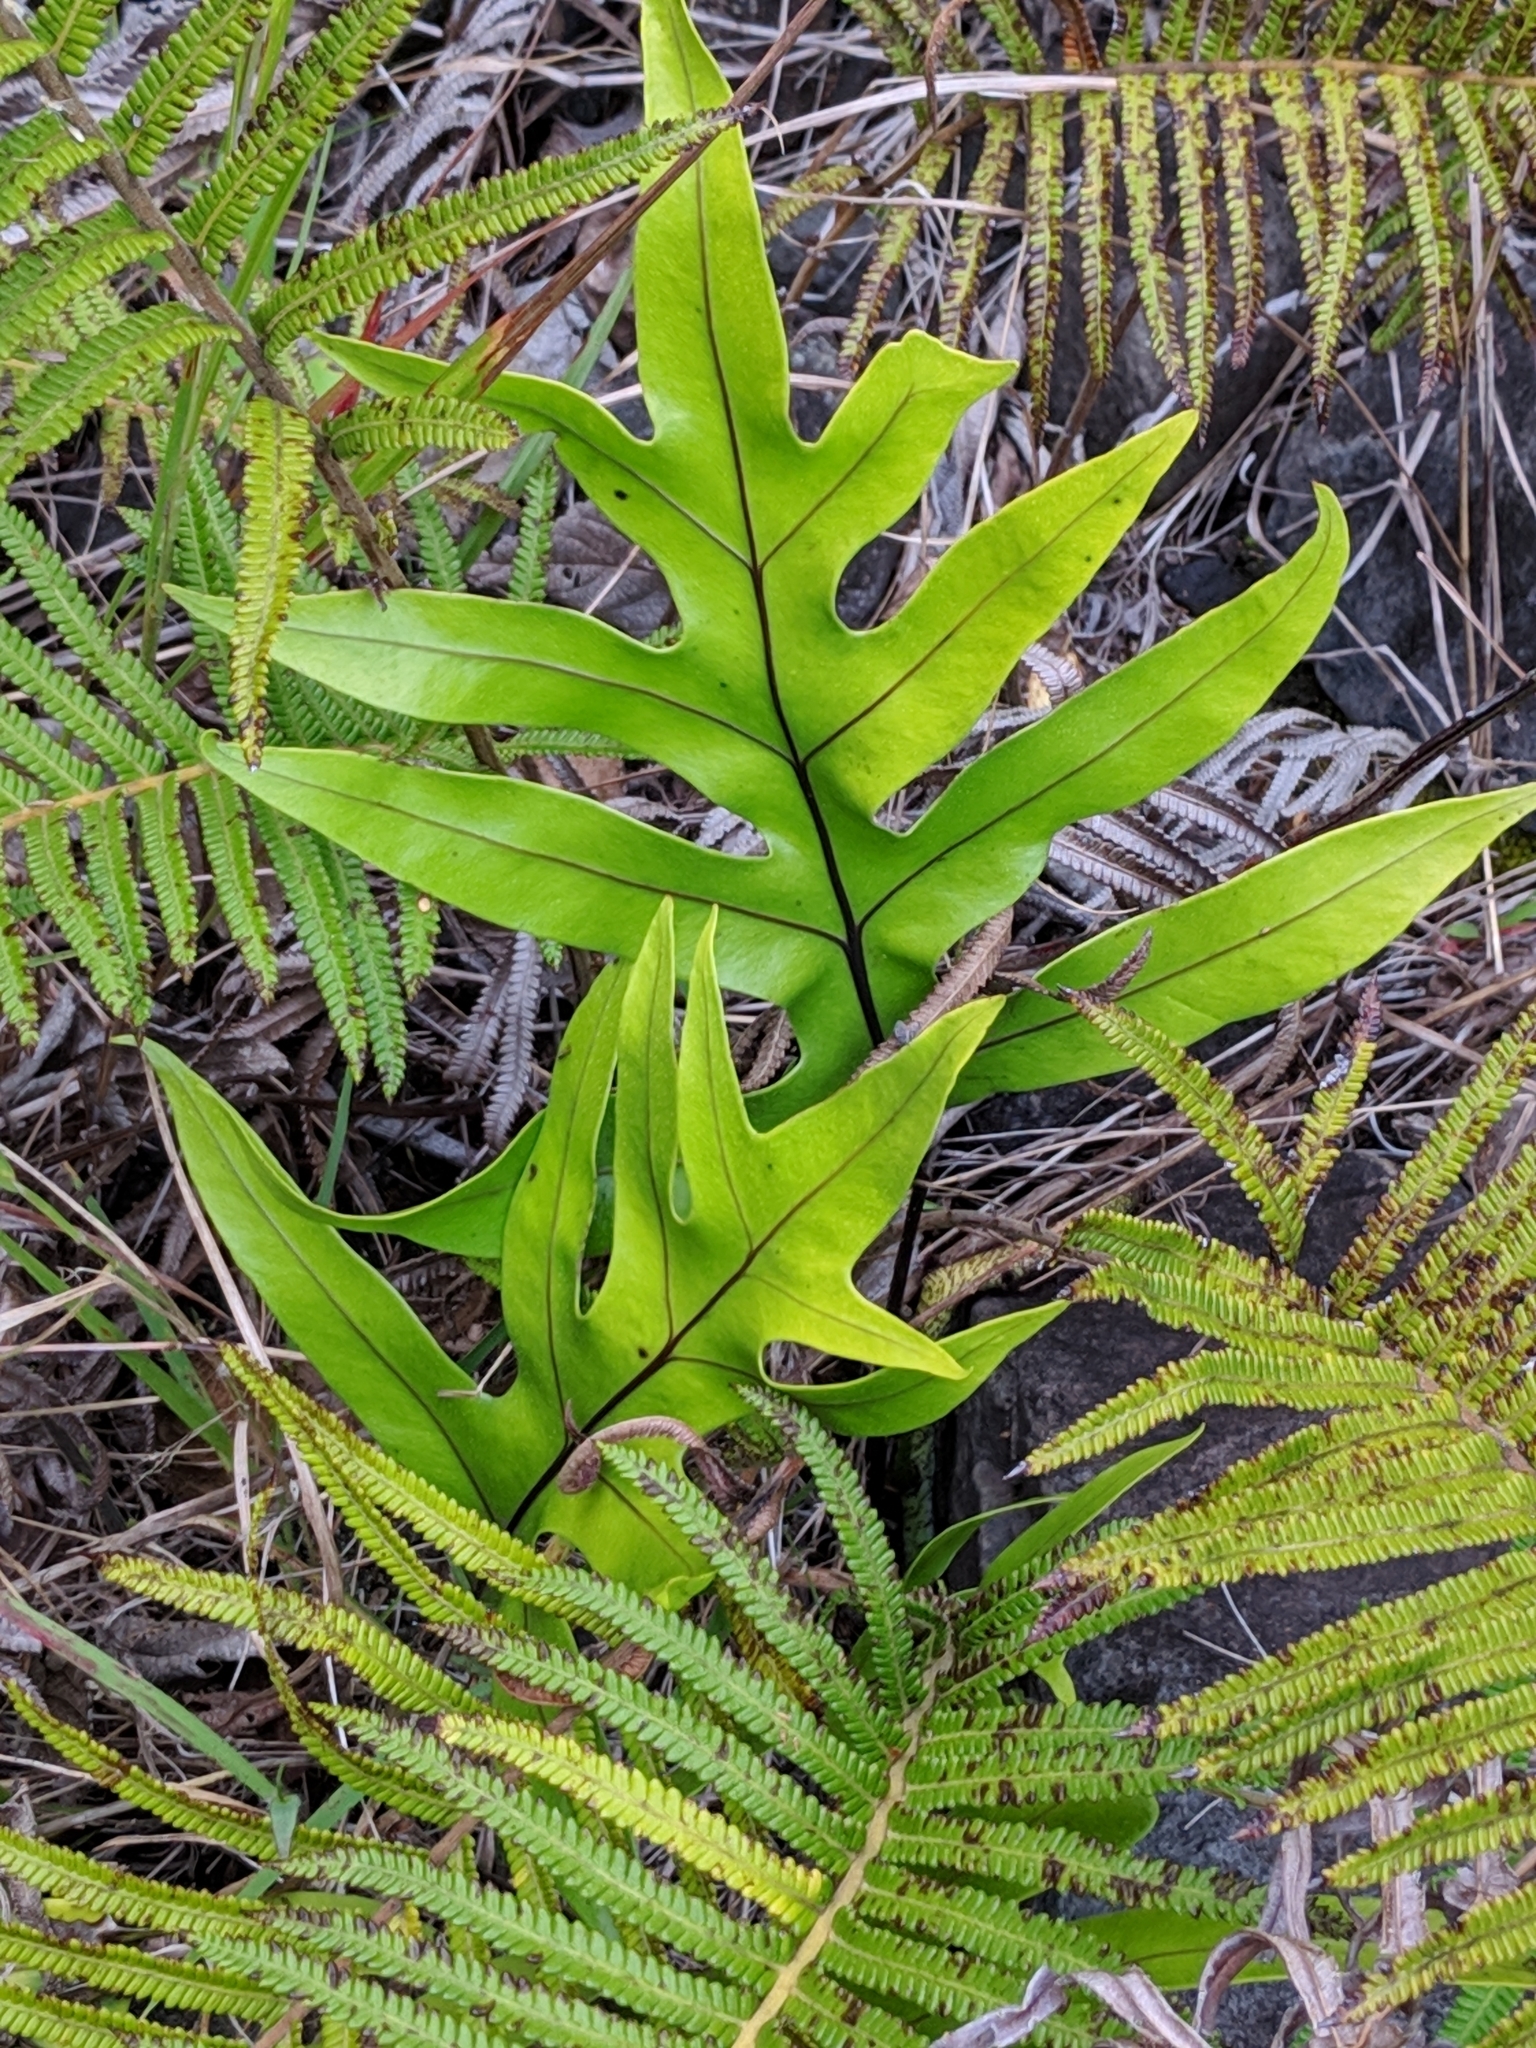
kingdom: Plantae
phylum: Tracheophyta
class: Polypodiopsida
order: Polypodiales
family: Polypodiaceae
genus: Microsorum
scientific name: Microsorum scolopendria
